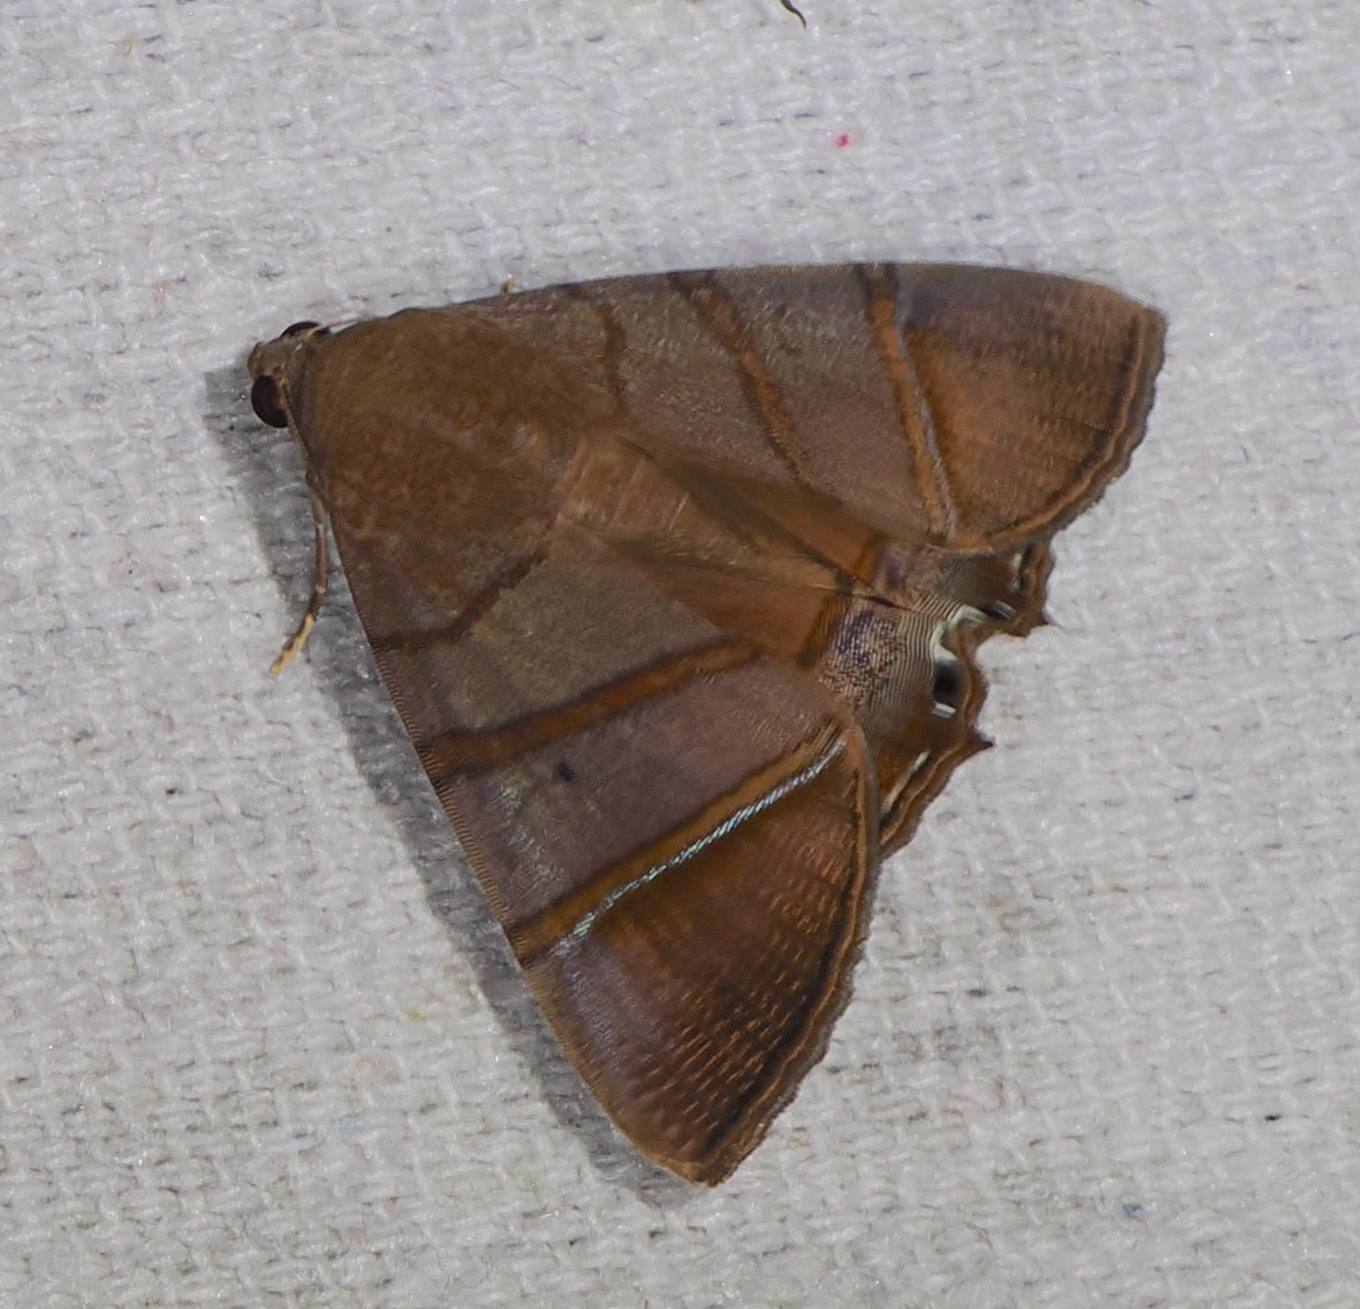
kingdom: Animalia
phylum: Arthropoda
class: Insecta
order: Lepidoptera
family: Erebidae
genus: Eulepidotis
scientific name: Eulepidotis superior
